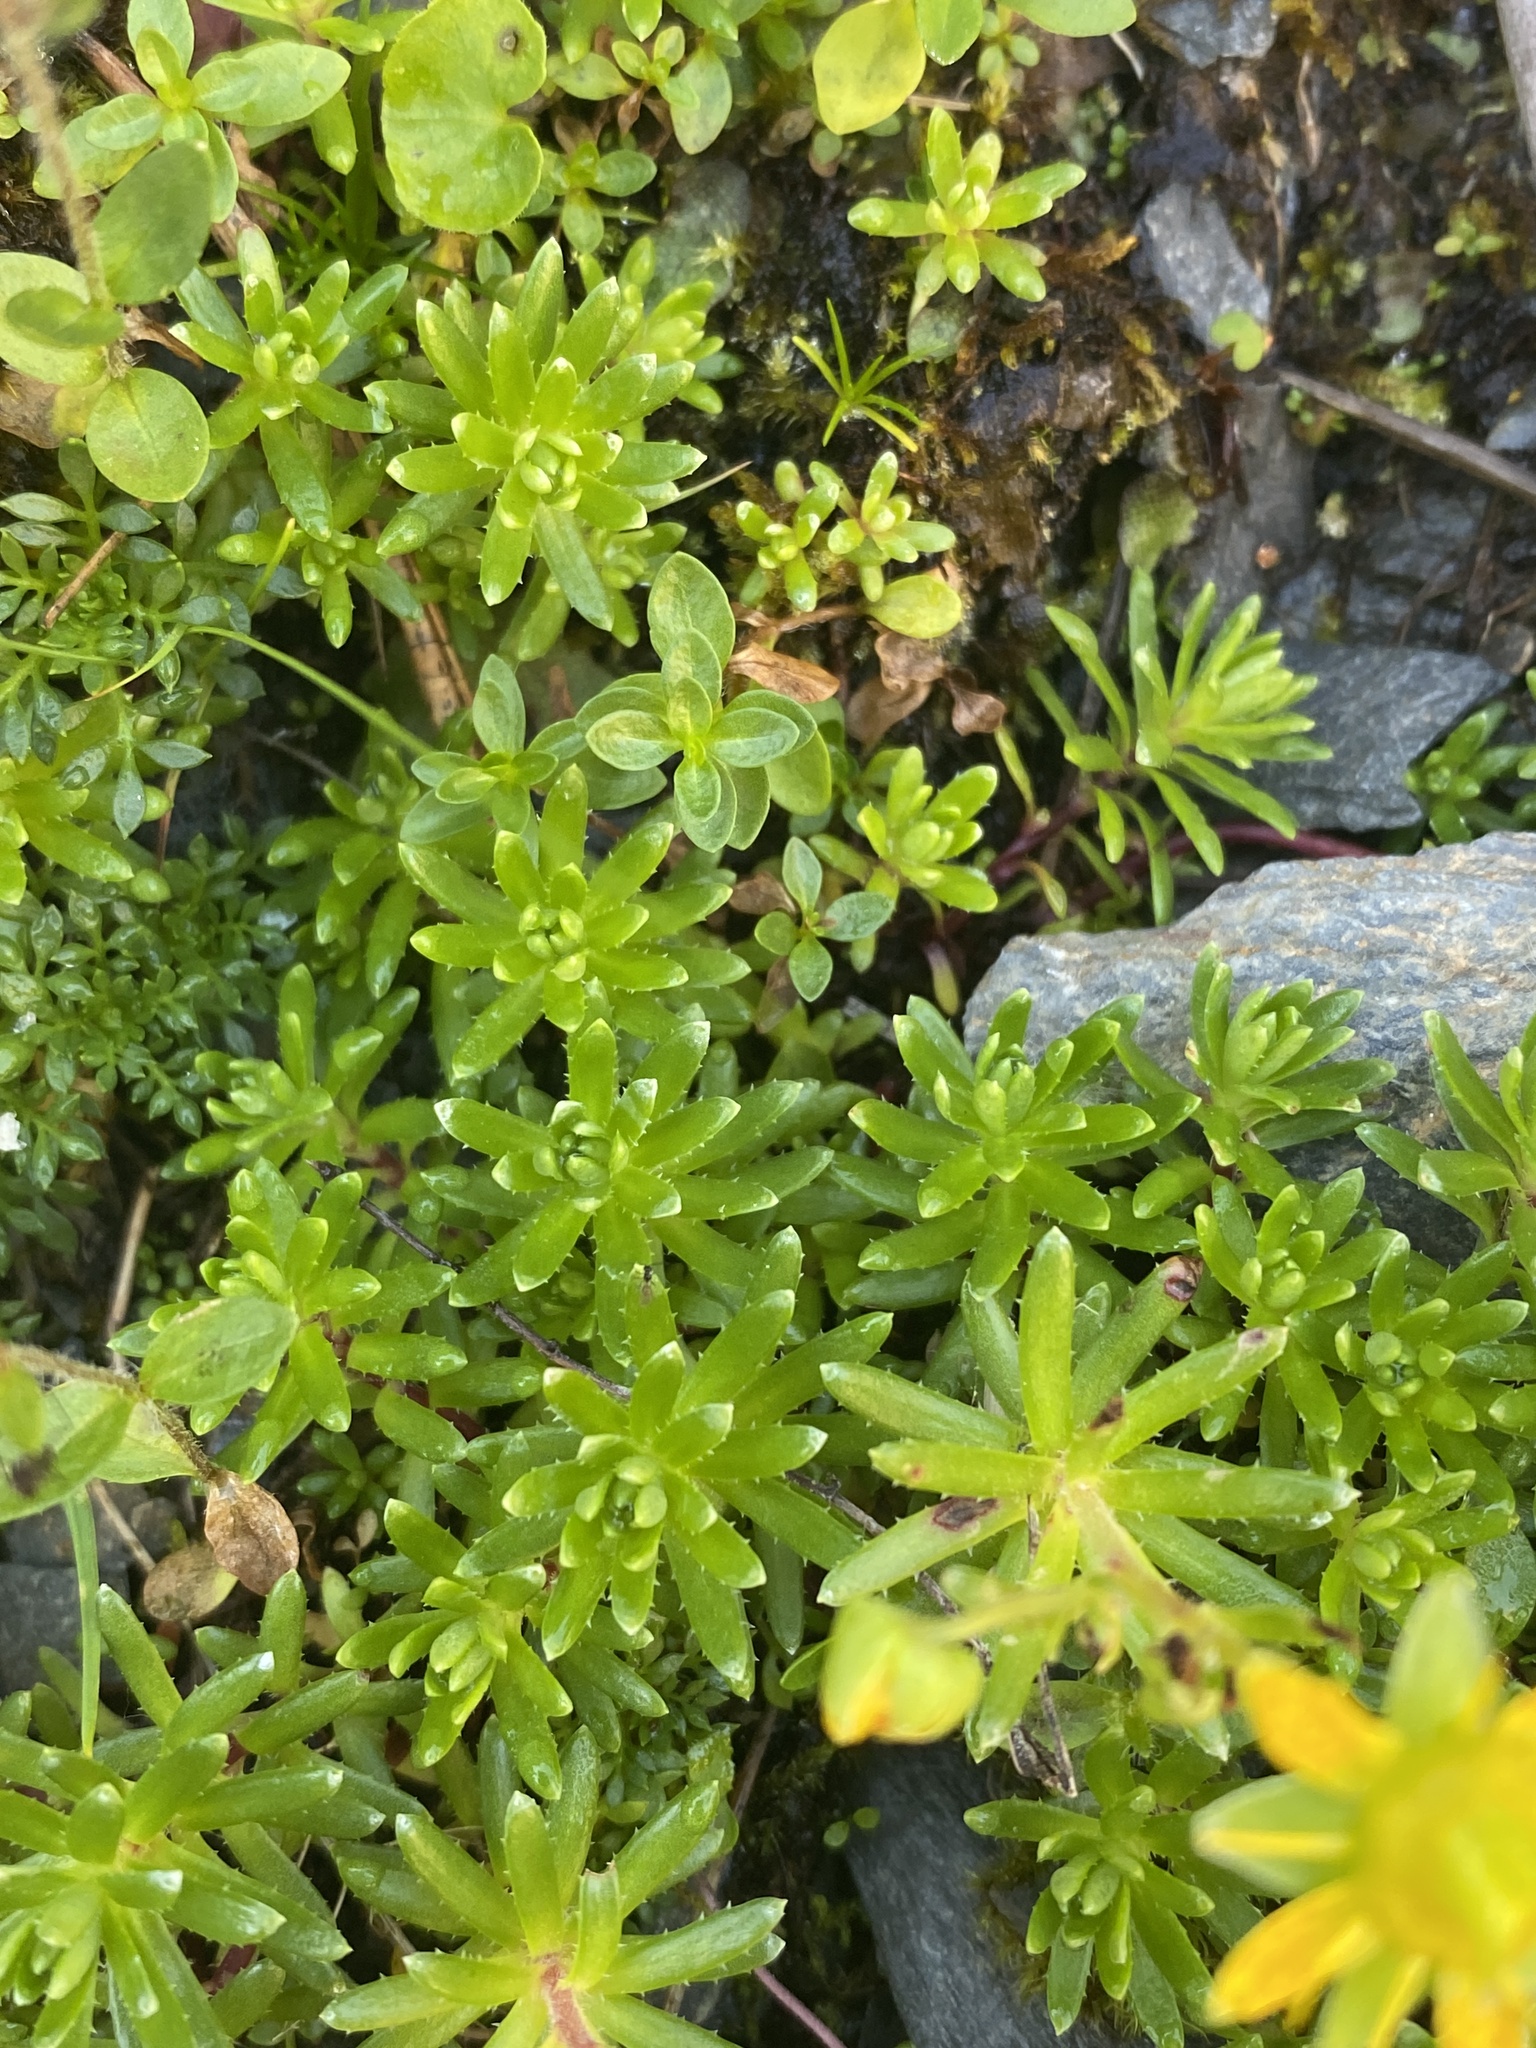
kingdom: Plantae
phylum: Tracheophyta
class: Magnoliopsida
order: Saxifragales
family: Saxifragaceae
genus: Saxifraga
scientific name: Saxifraga aizoides
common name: Yellow mountain saxifrage
